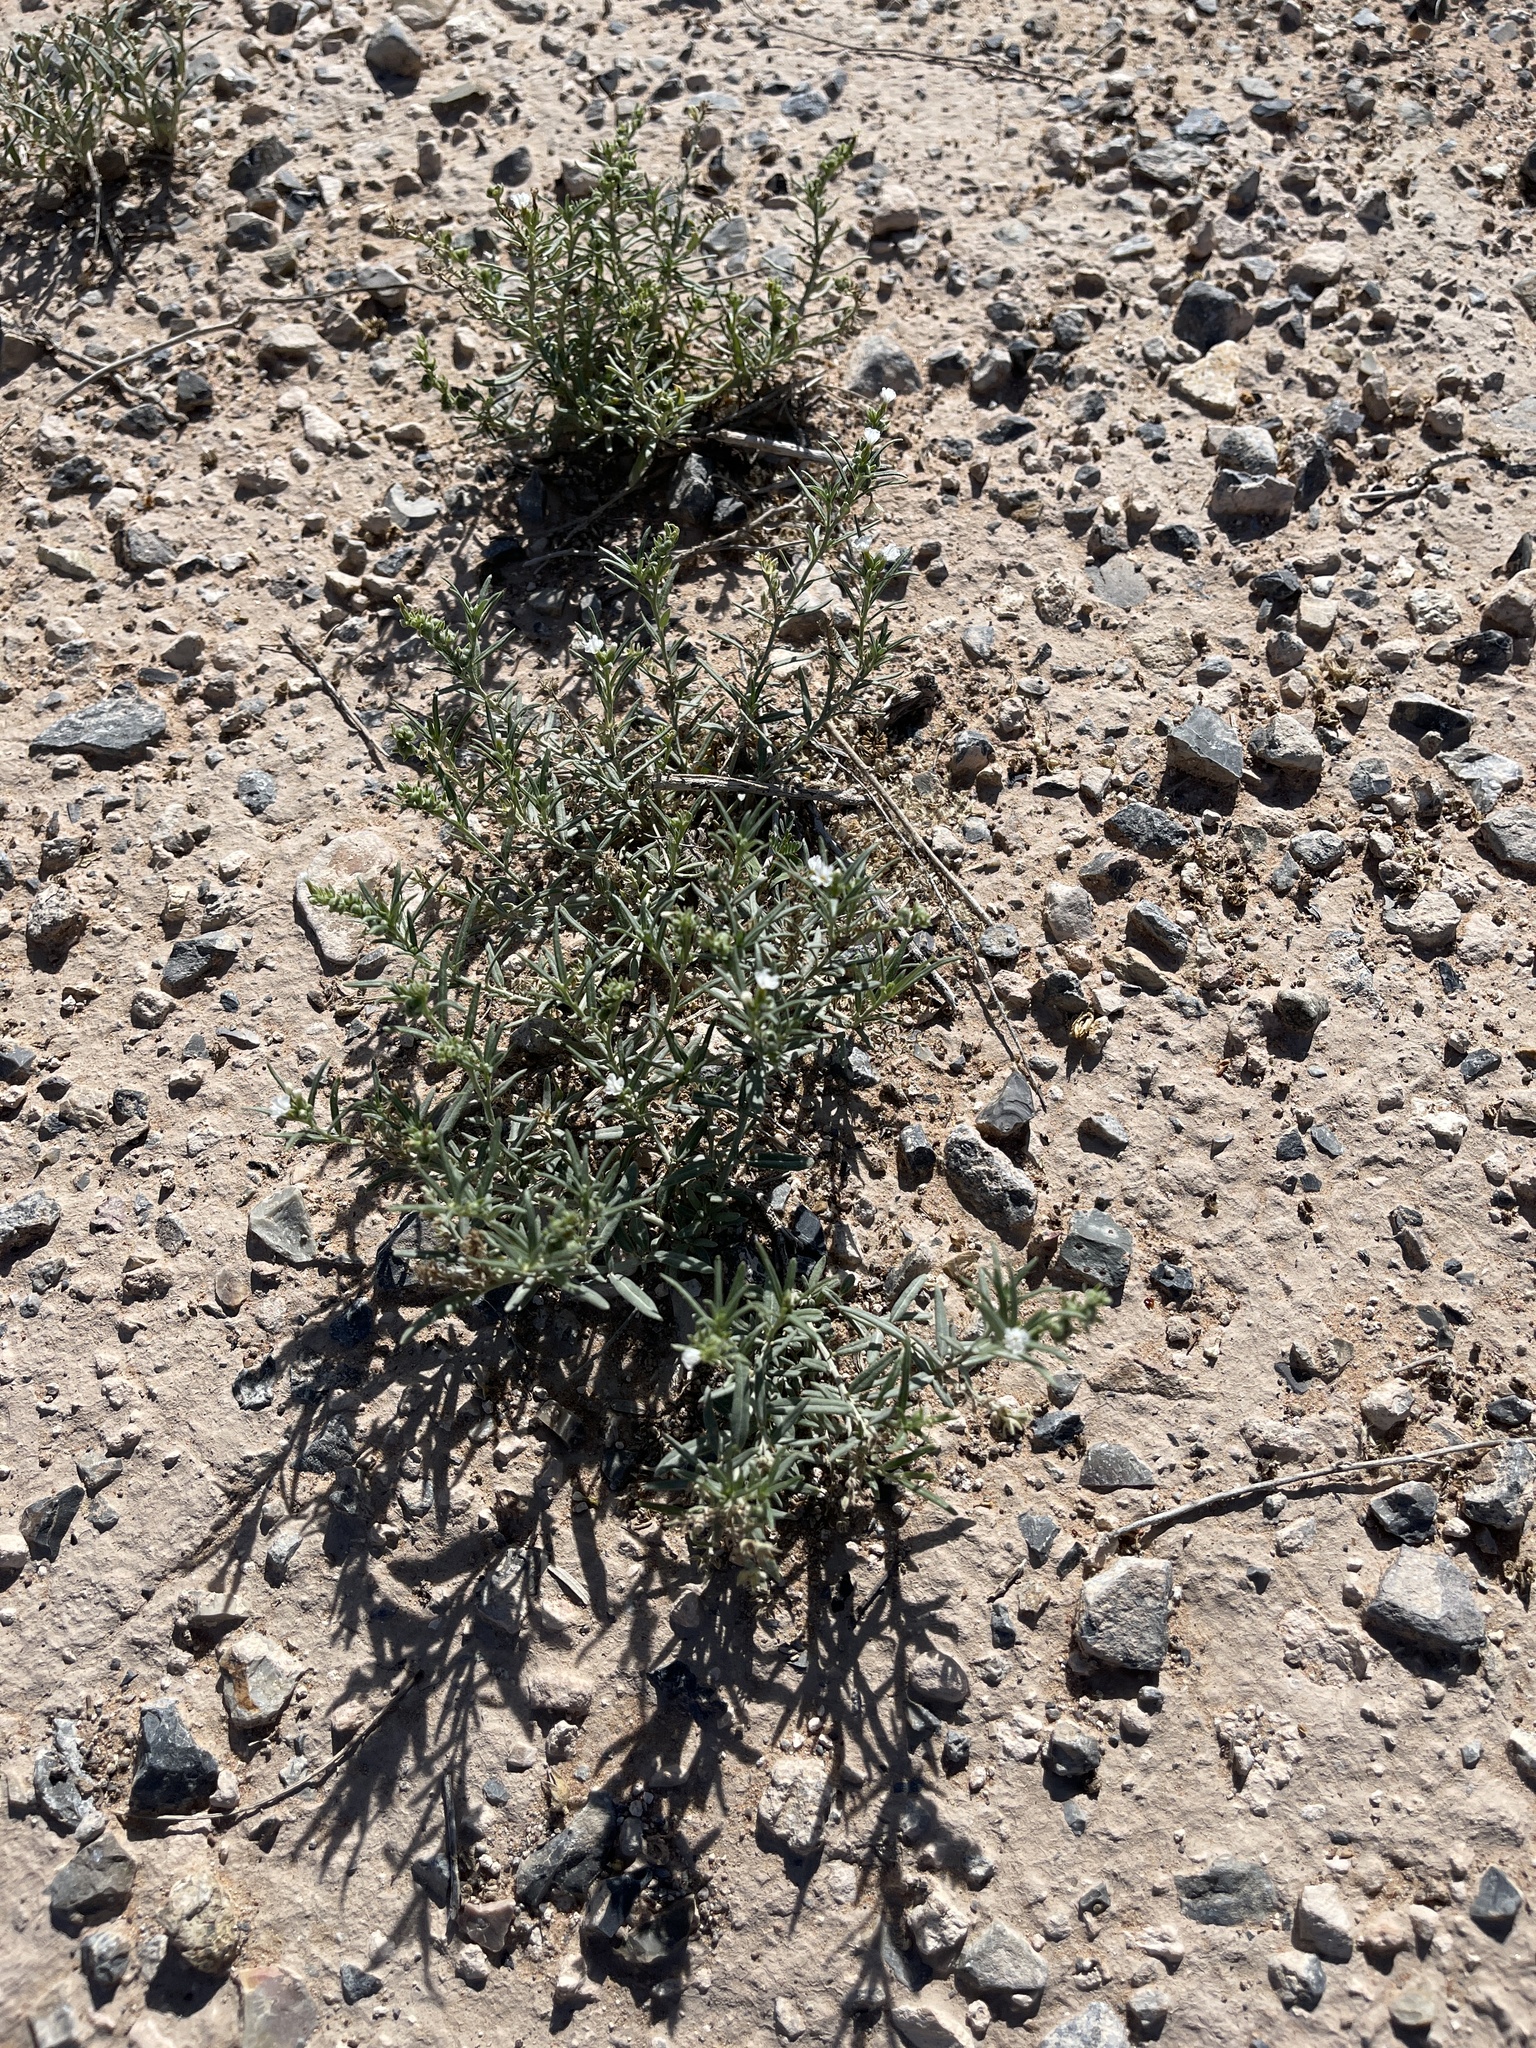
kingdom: Plantae
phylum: Tracheophyta
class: Magnoliopsida
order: Boraginales
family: Heliotropiaceae
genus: Euploca
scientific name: Euploca greggii
